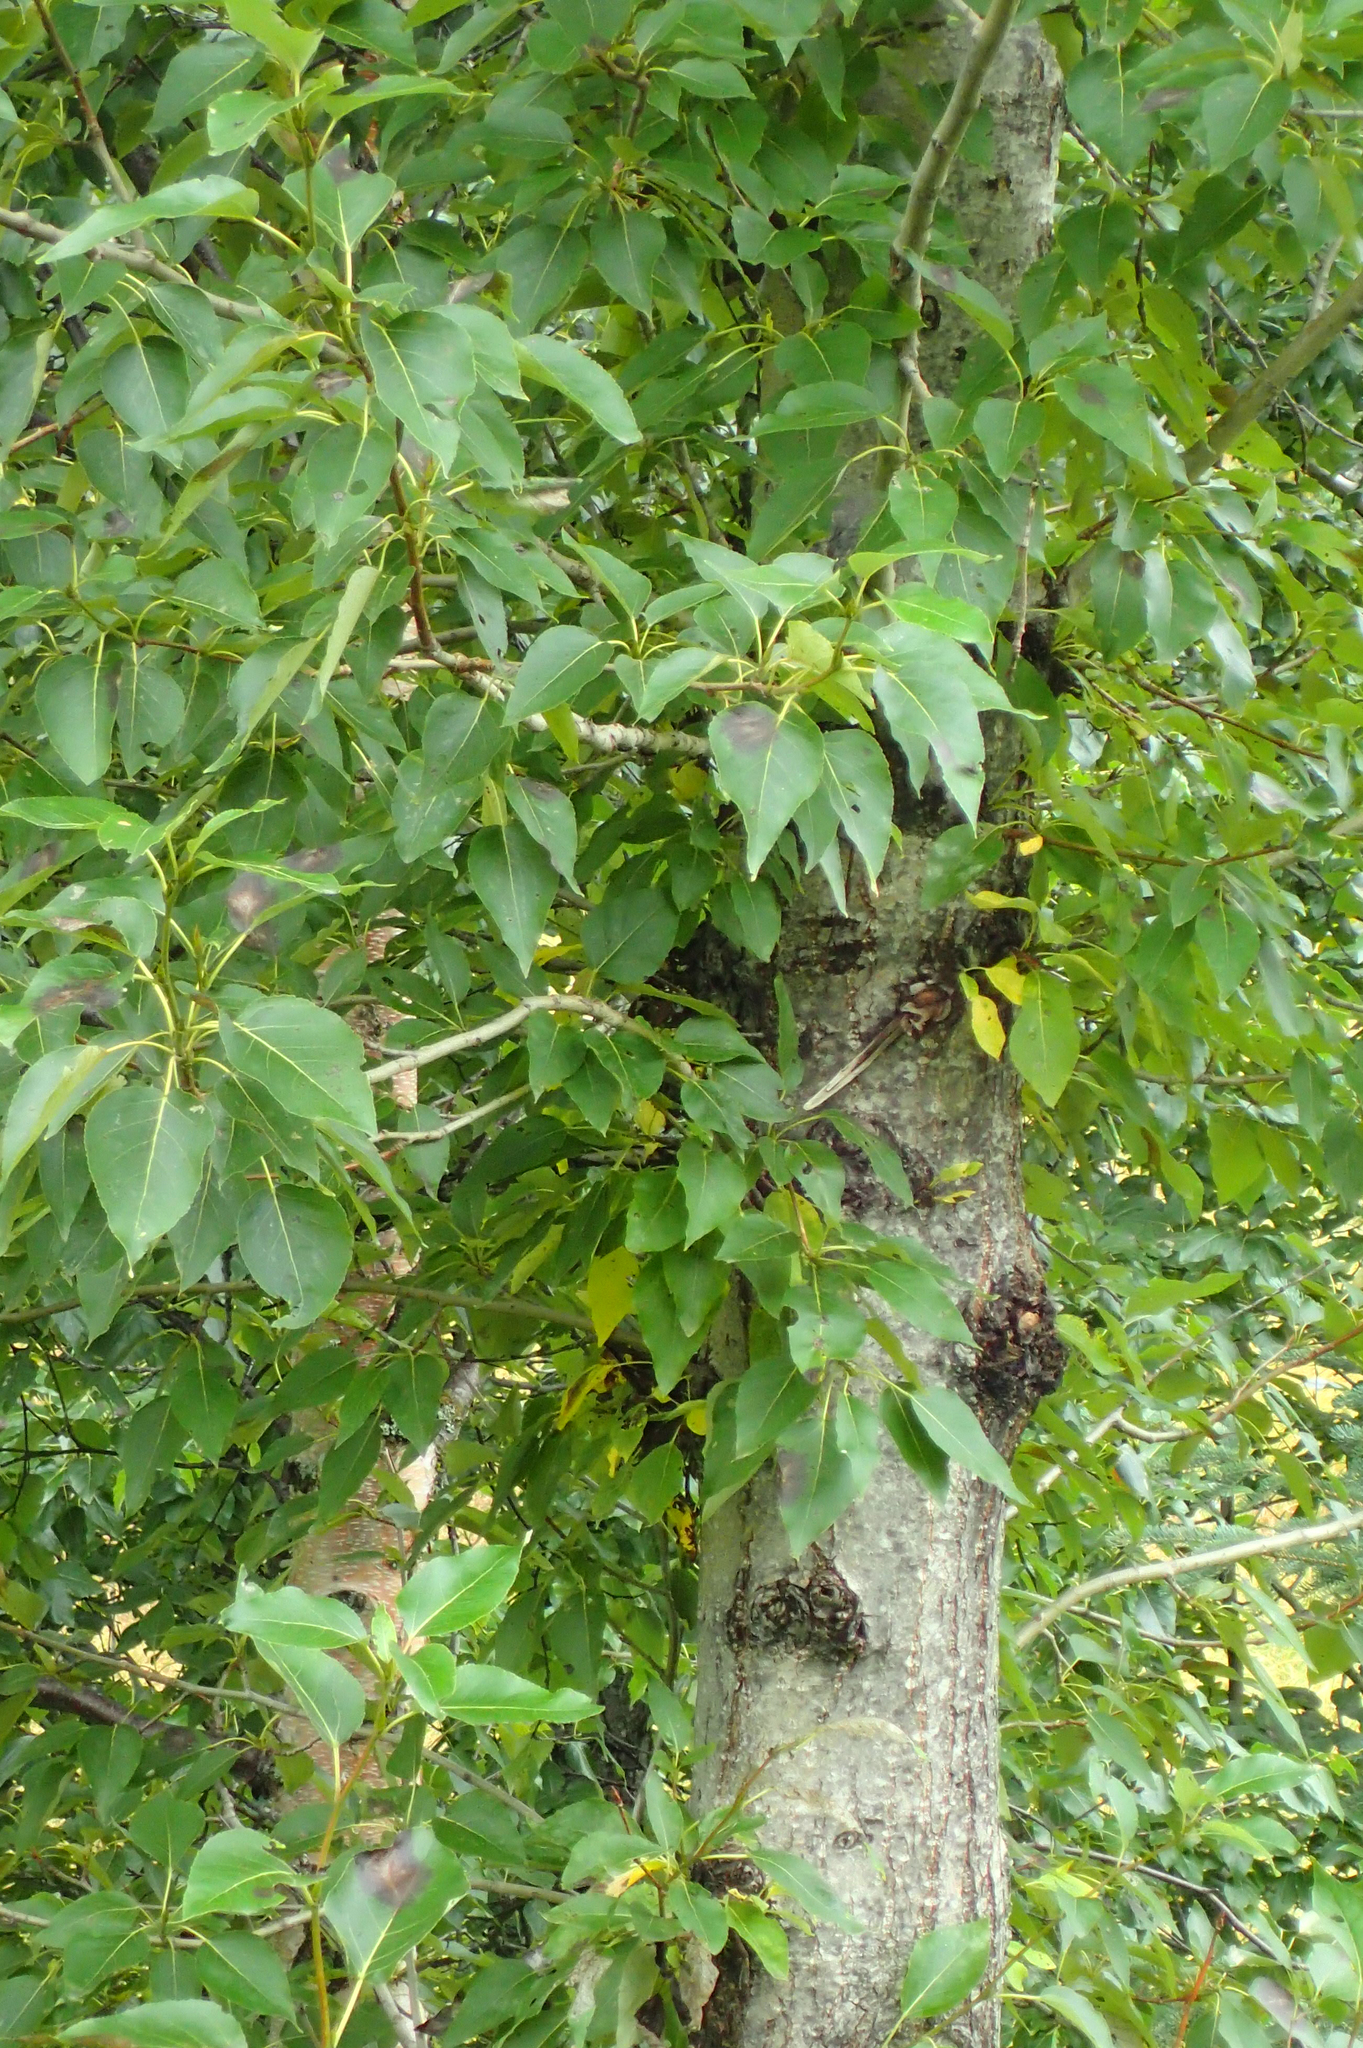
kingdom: Plantae
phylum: Tracheophyta
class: Magnoliopsida
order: Malpighiales
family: Salicaceae
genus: Populus
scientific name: Populus trichocarpa
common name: Black cottonwood
